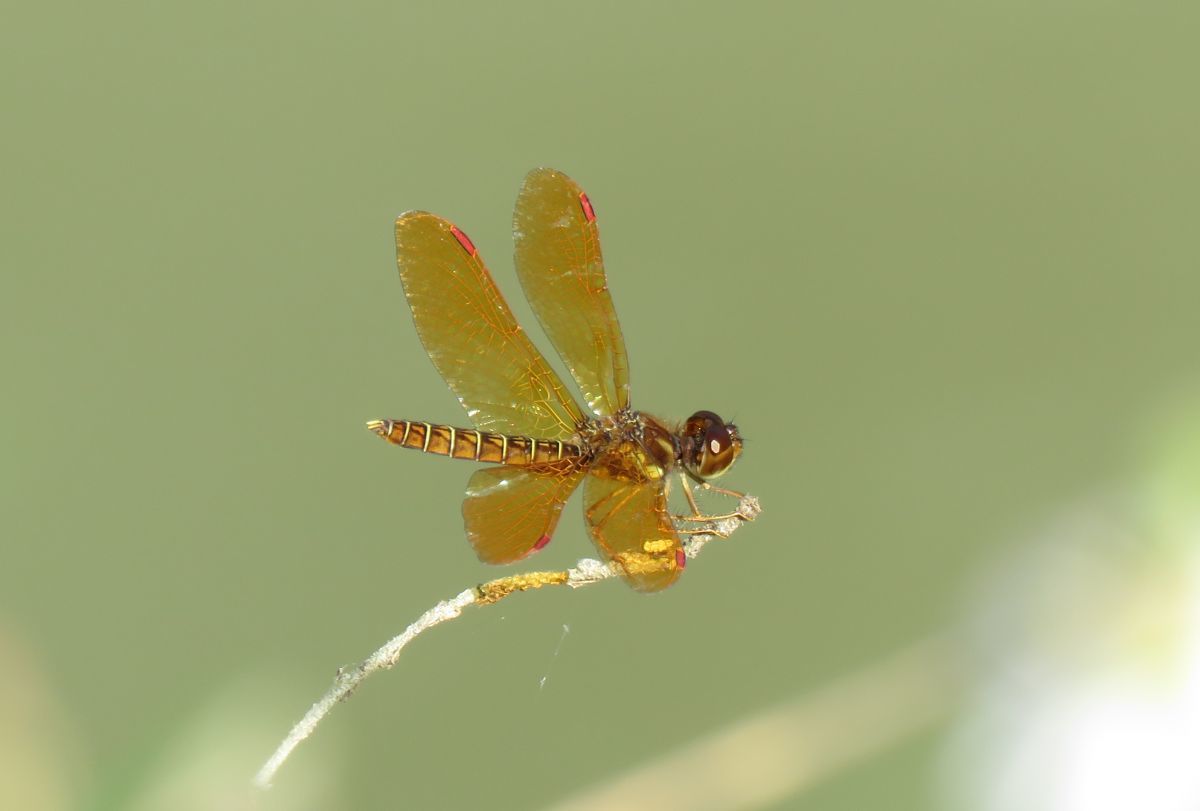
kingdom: Animalia
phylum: Arthropoda
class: Insecta
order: Odonata
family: Libellulidae
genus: Perithemis
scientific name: Perithemis tenera
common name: Eastern amberwing
